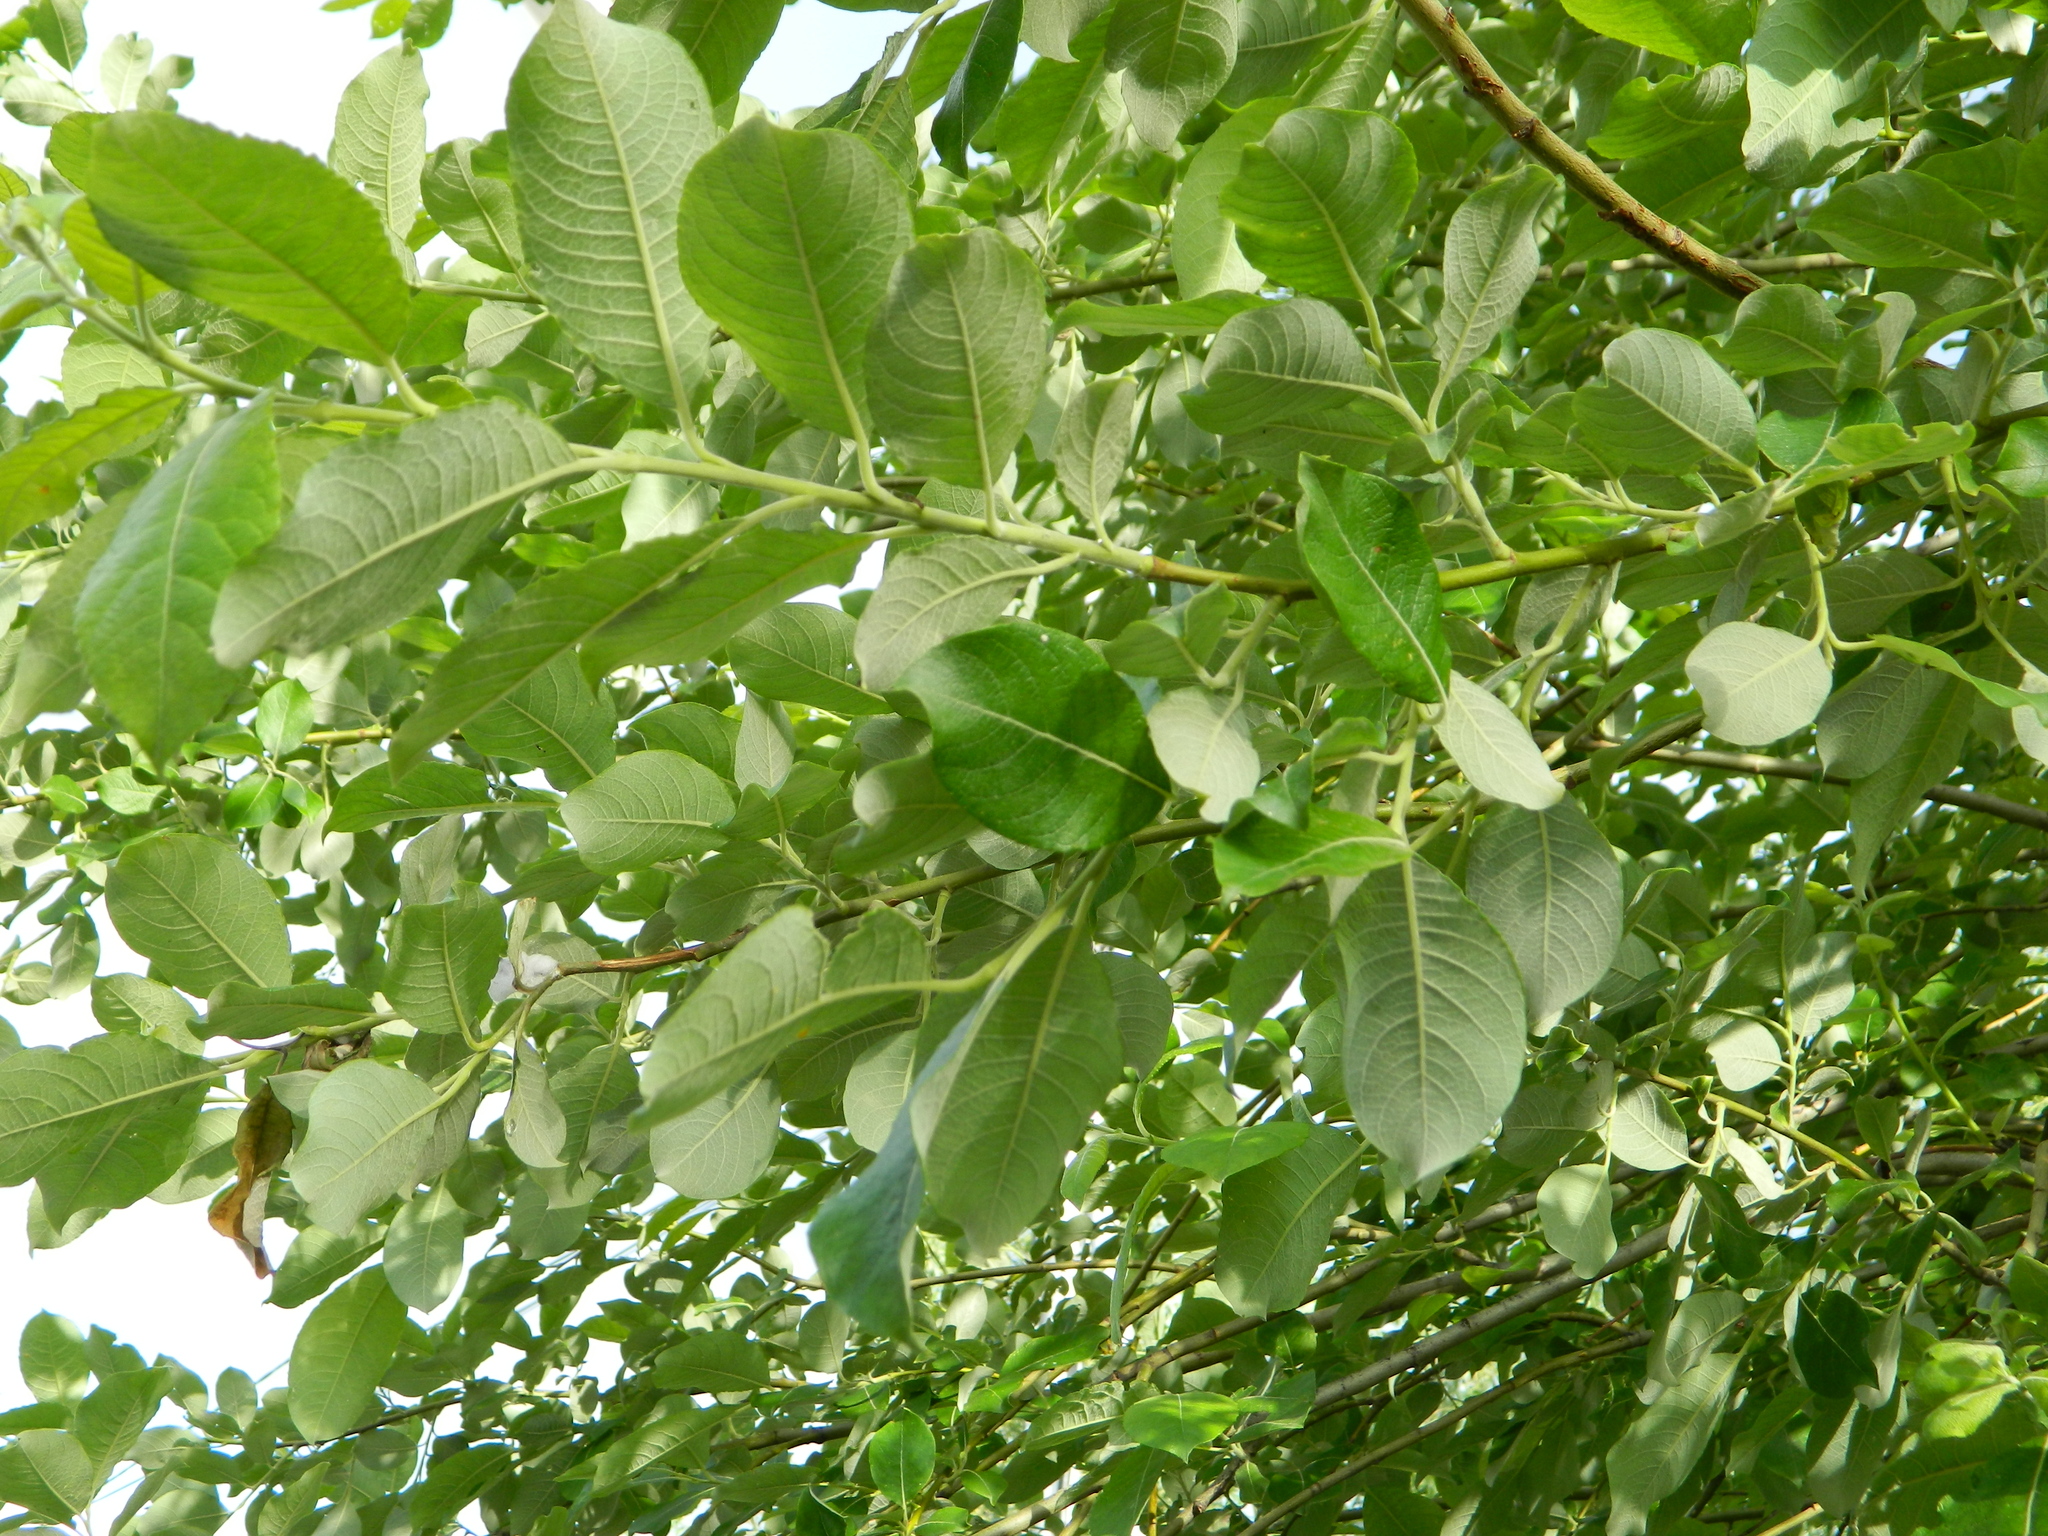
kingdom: Plantae
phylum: Tracheophyta
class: Magnoliopsida
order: Malpighiales
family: Salicaceae
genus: Salix
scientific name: Salix caprea
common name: Goat willow
